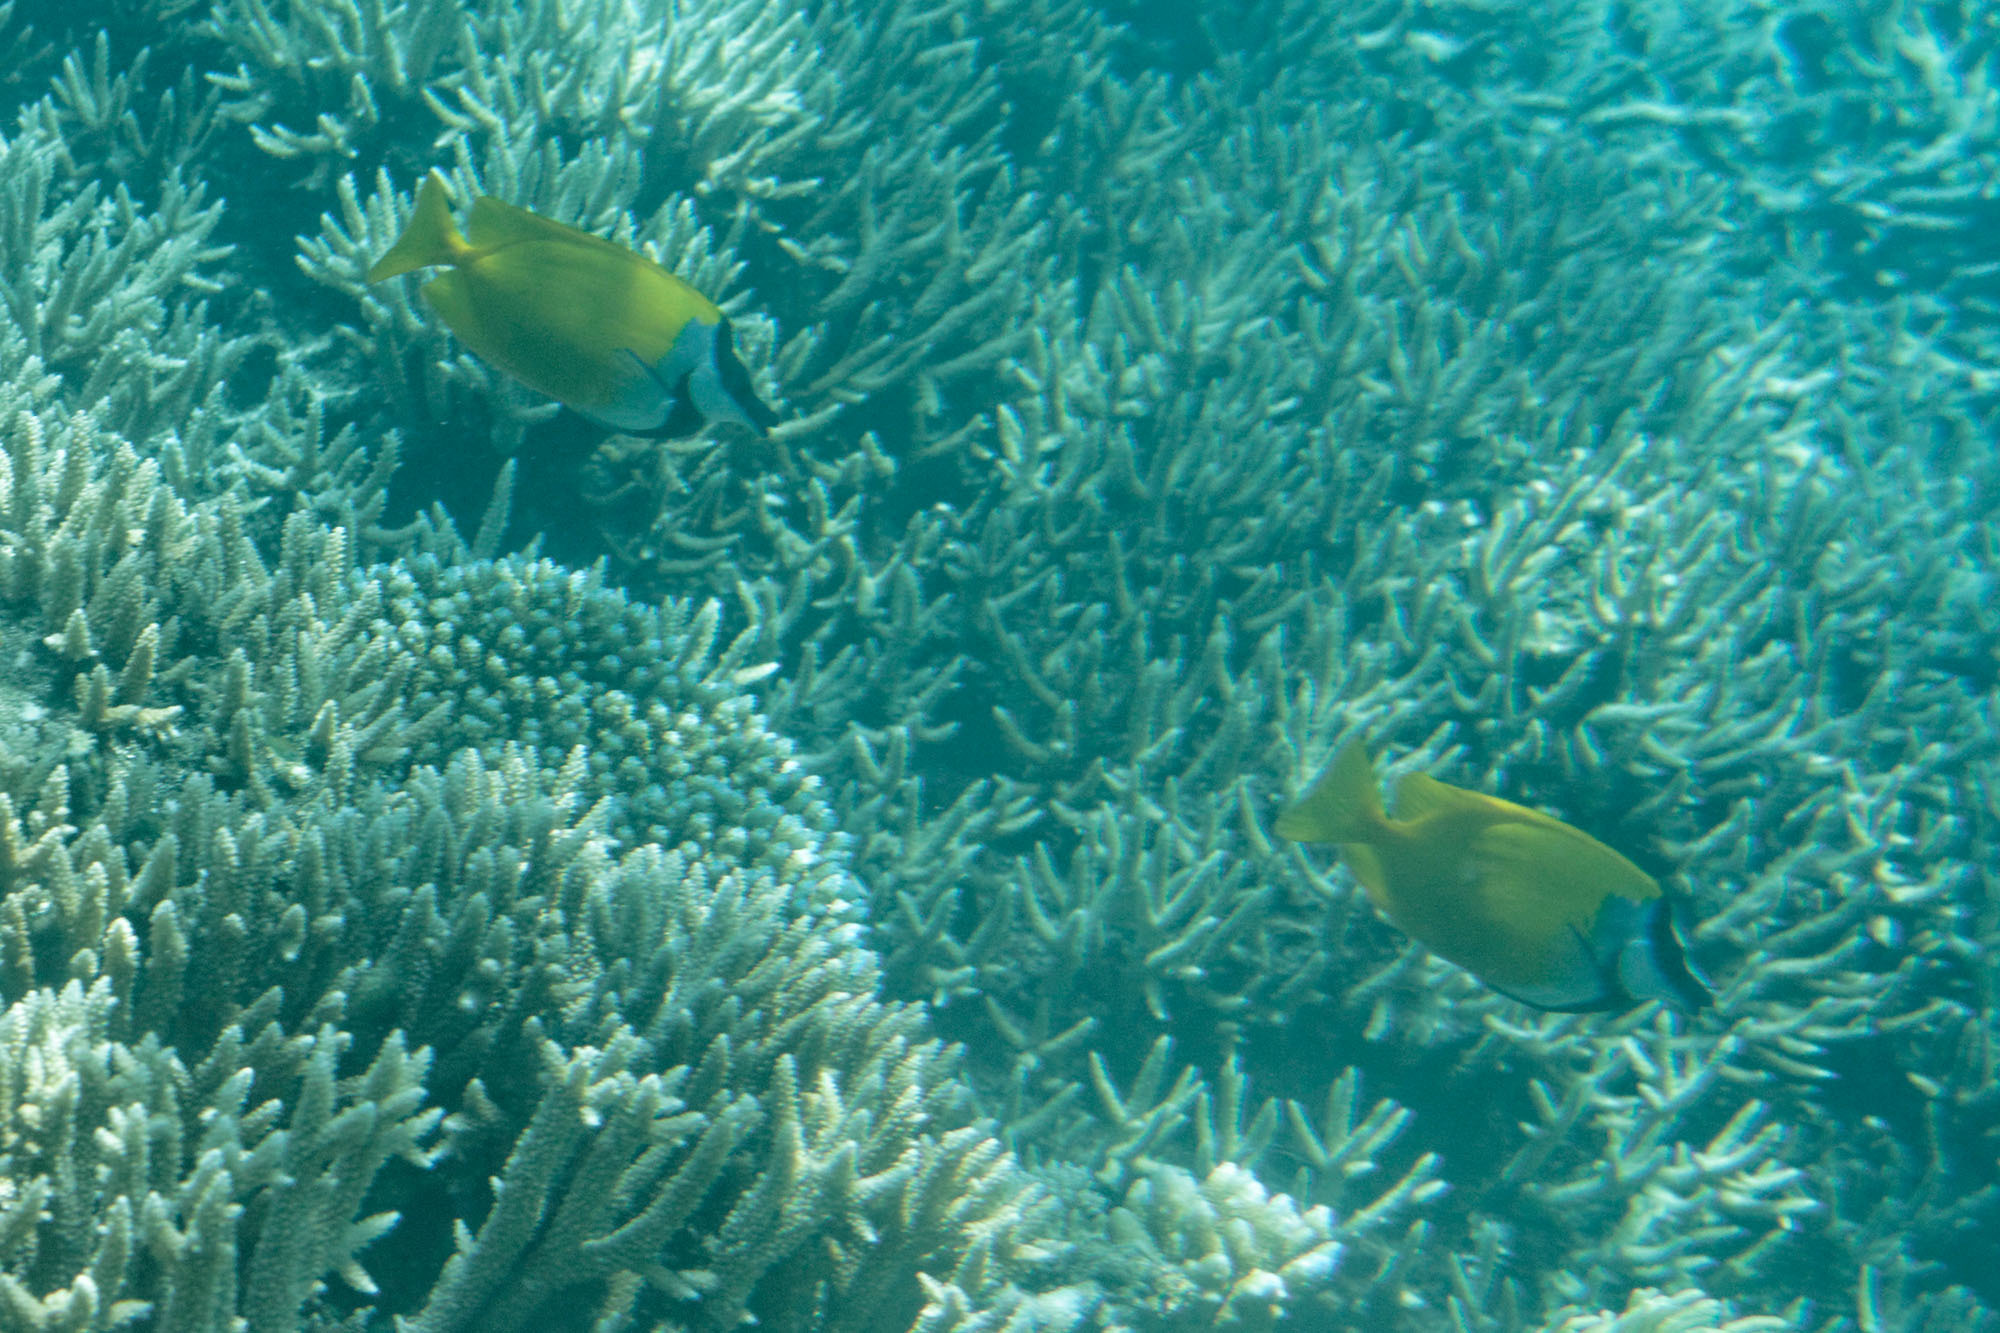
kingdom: Animalia
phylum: Chordata
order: Perciformes
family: Siganidae
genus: Siganus
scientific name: Siganus vulpinus
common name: Foxface
